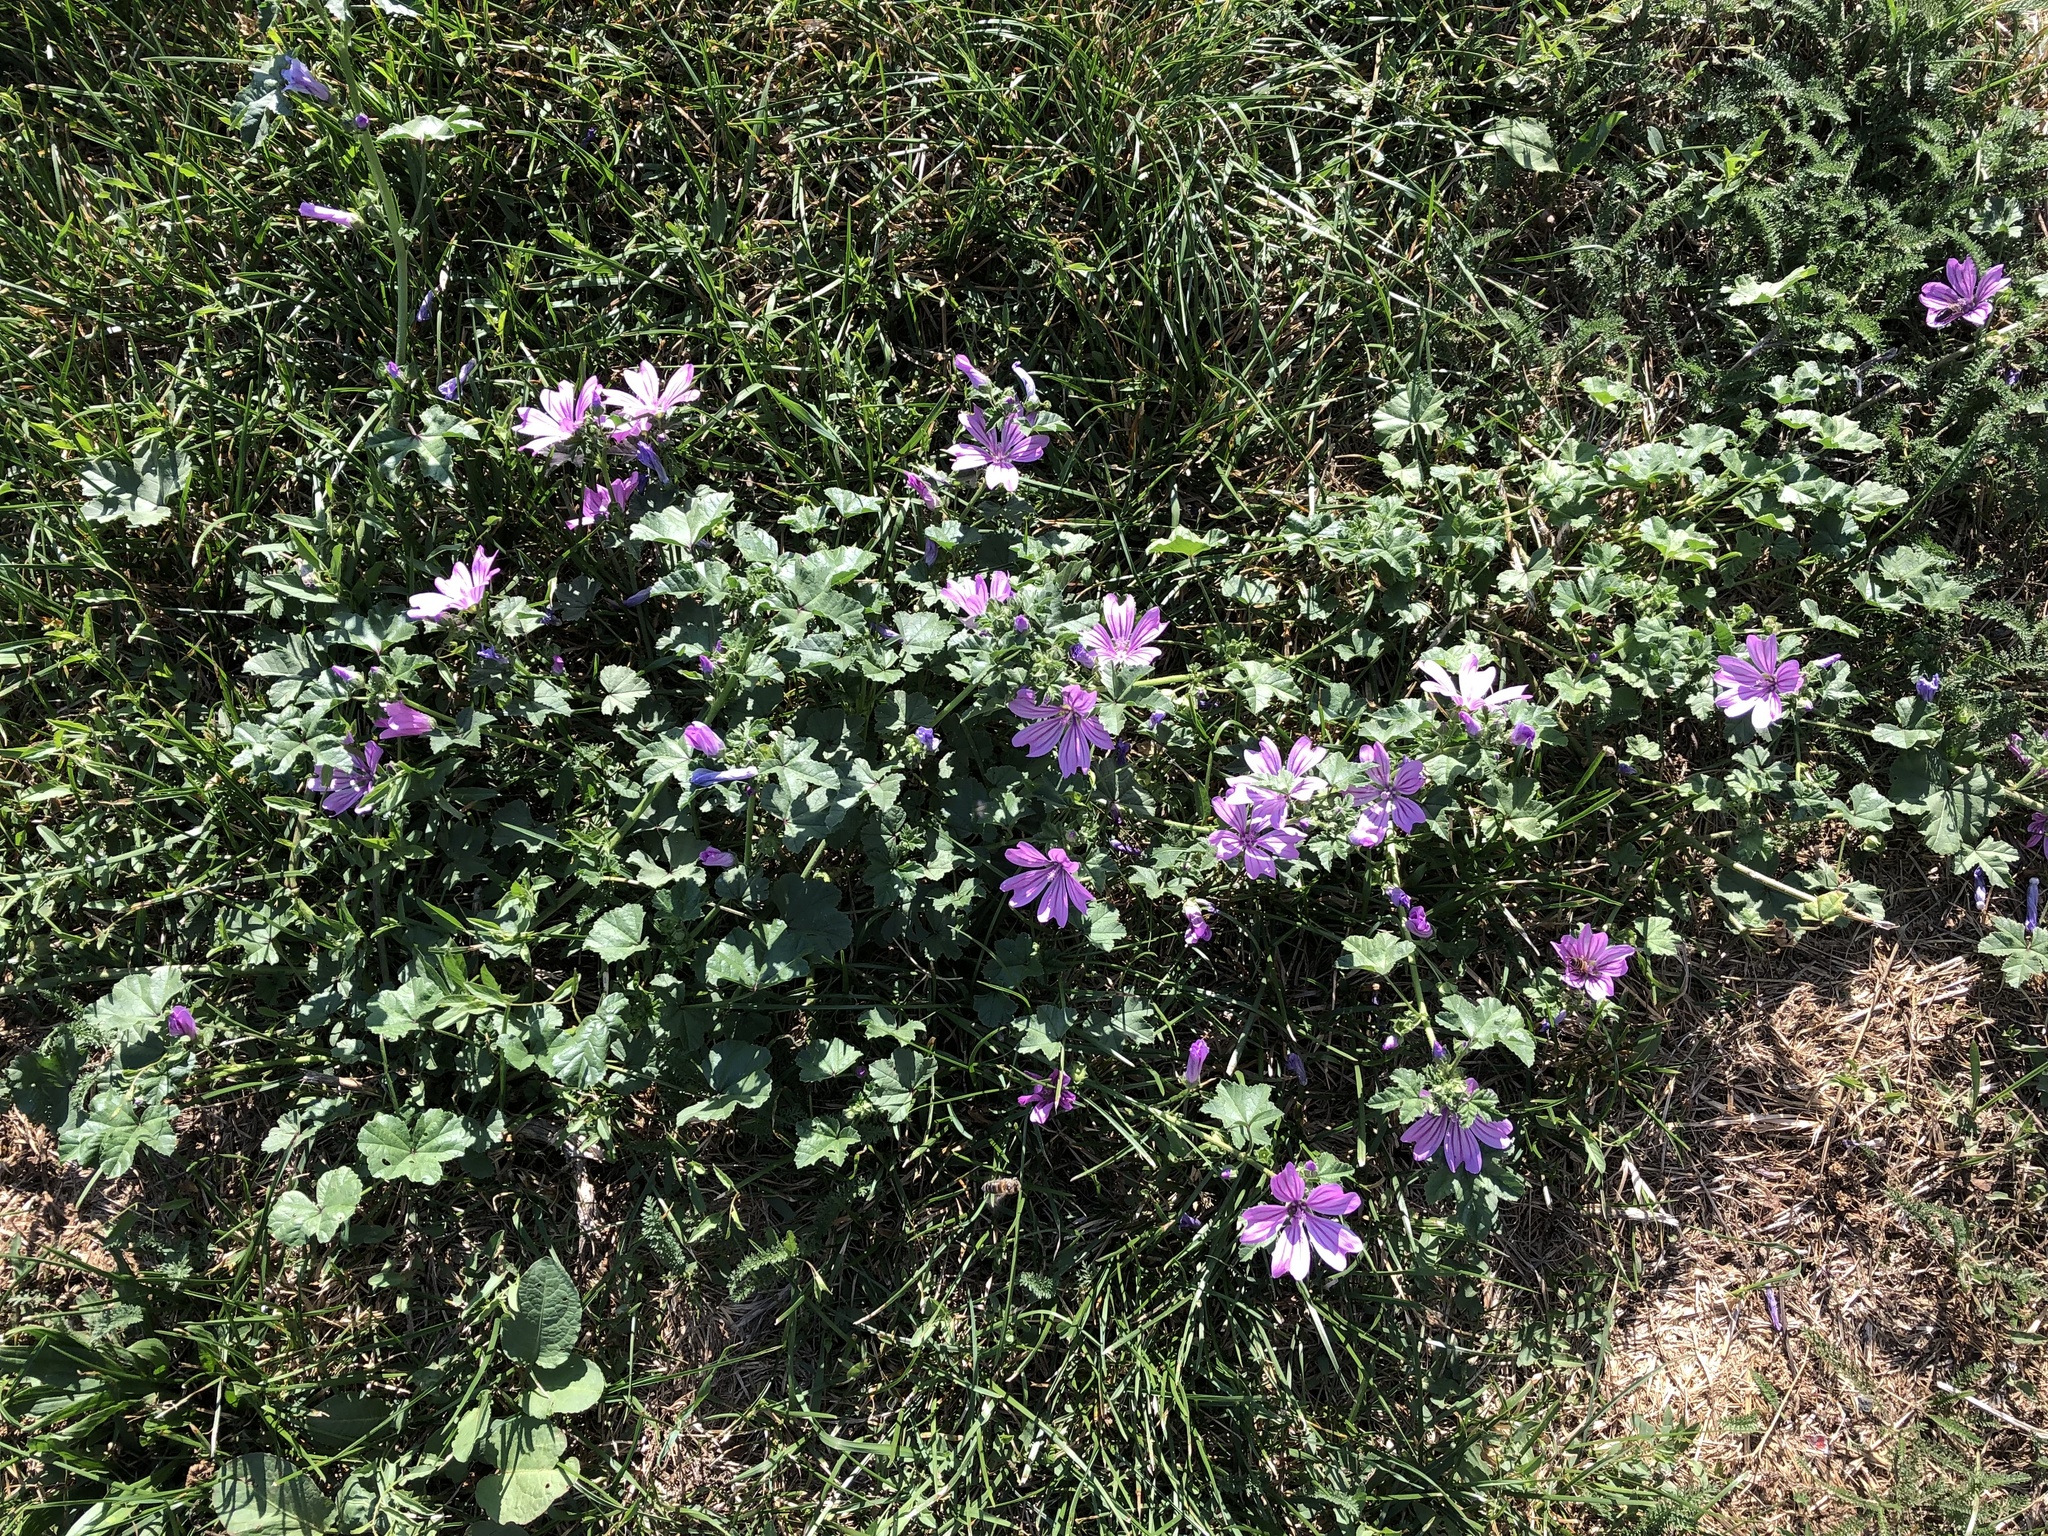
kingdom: Plantae
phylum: Tracheophyta
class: Magnoliopsida
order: Malvales
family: Malvaceae
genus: Malva
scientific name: Malva sylvestris
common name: Common mallow
